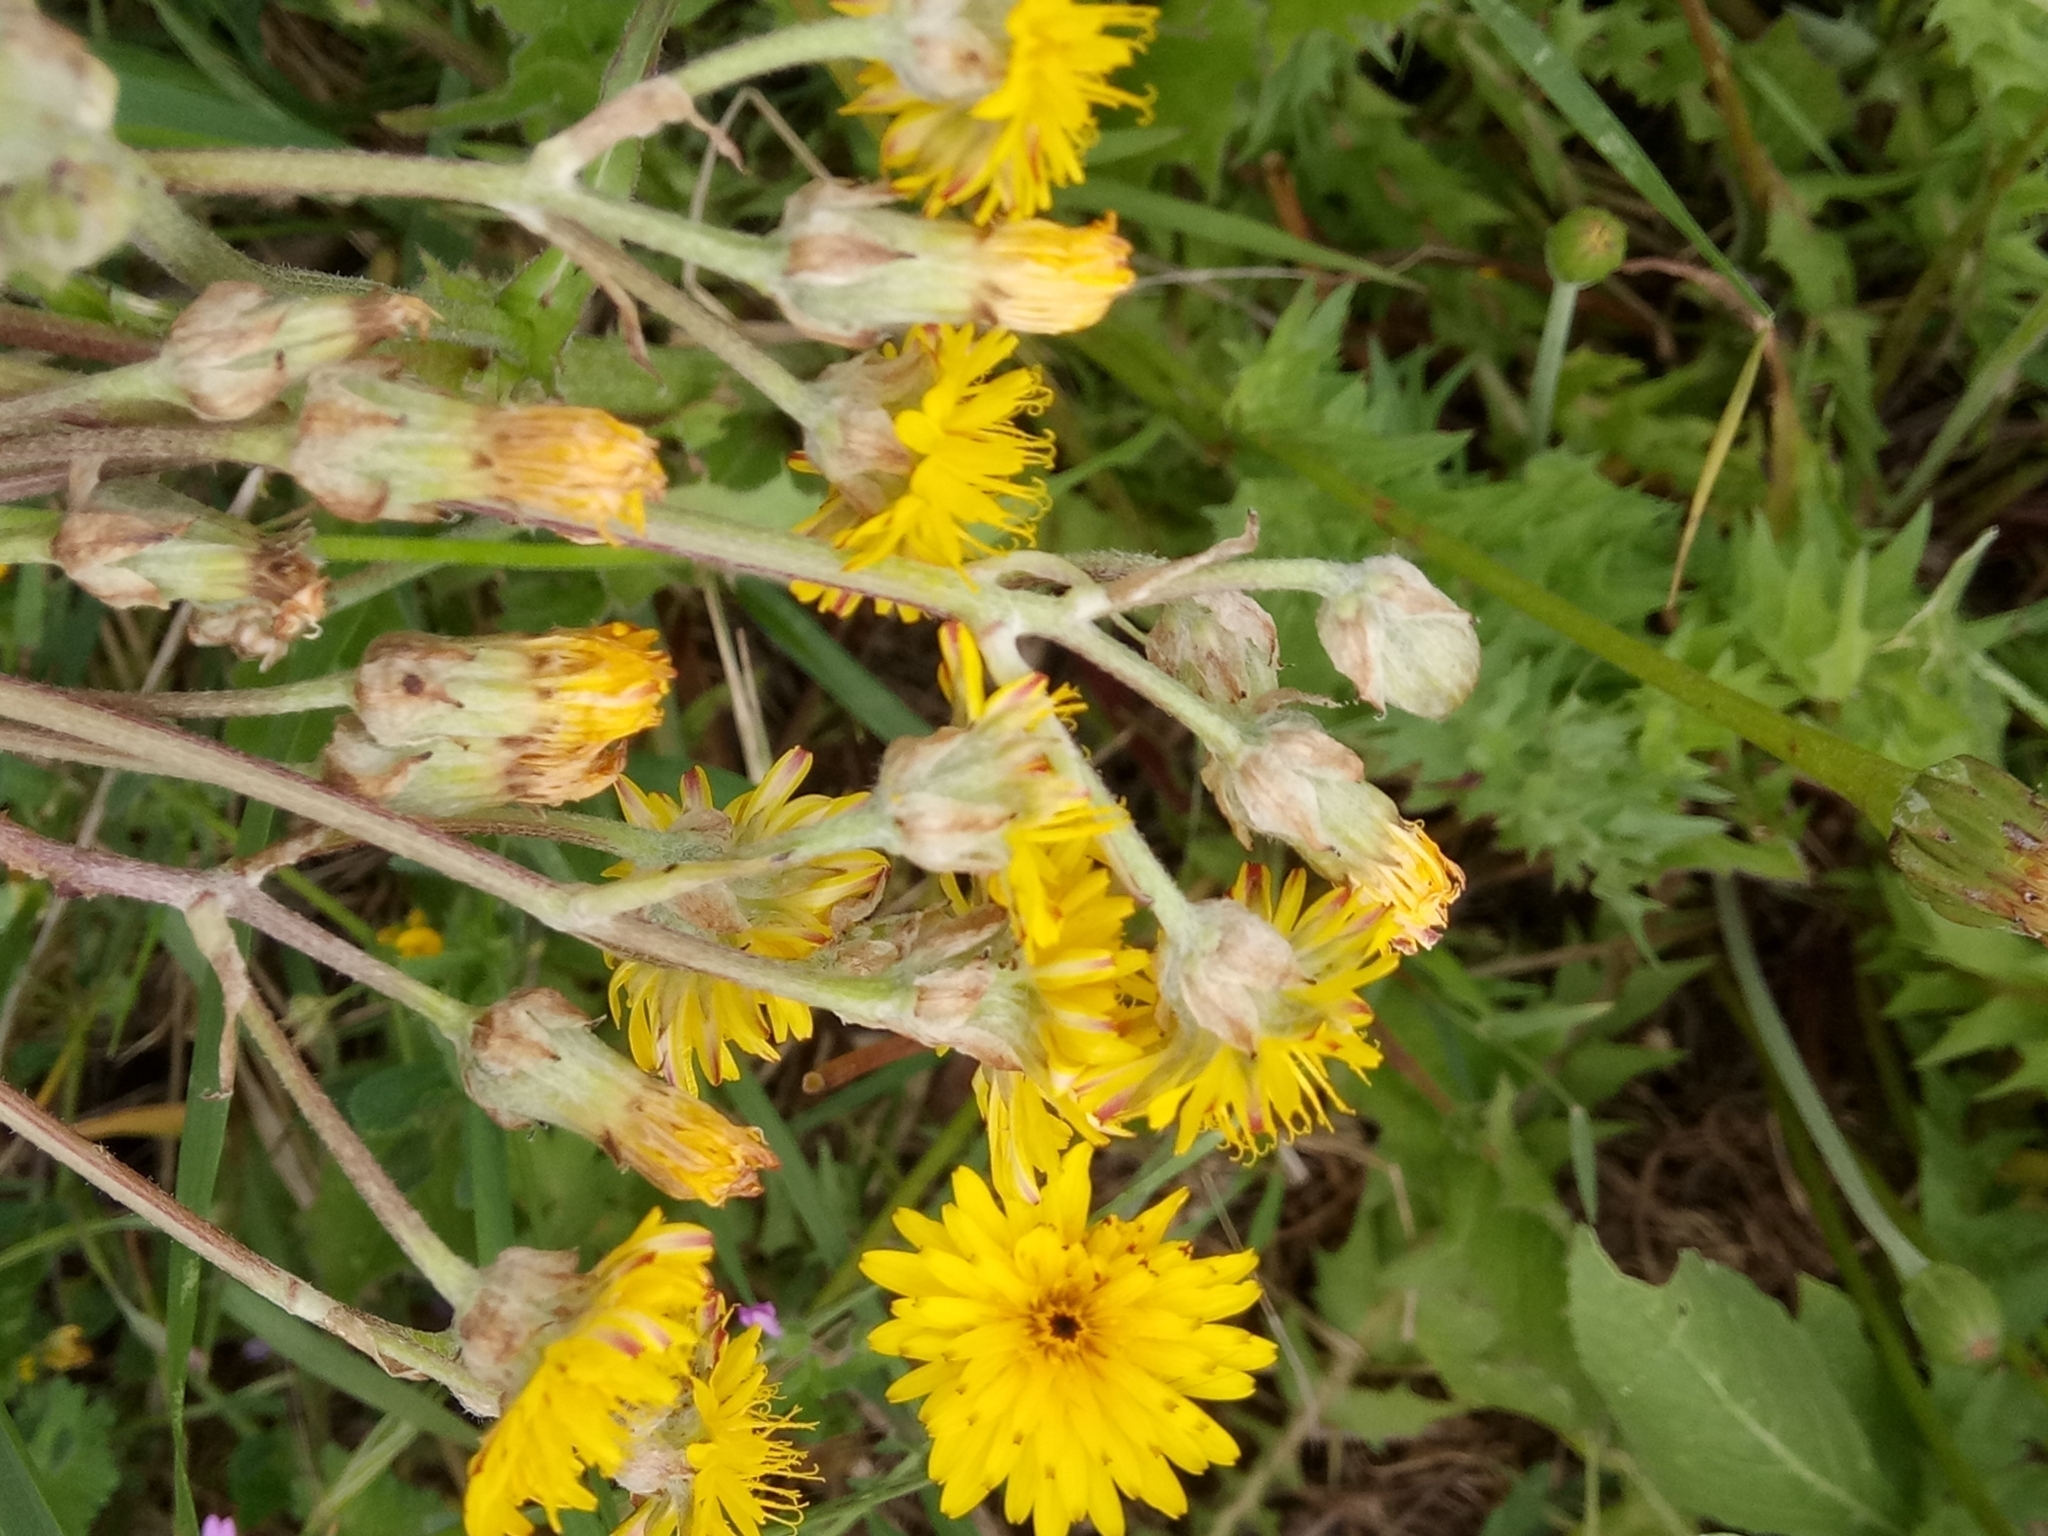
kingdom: Plantae
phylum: Tracheophyta
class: Magnoliopsida
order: Asterales
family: Asteraceae
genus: Crepis
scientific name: Crepis vesicaria
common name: Beaked hawksbeard
